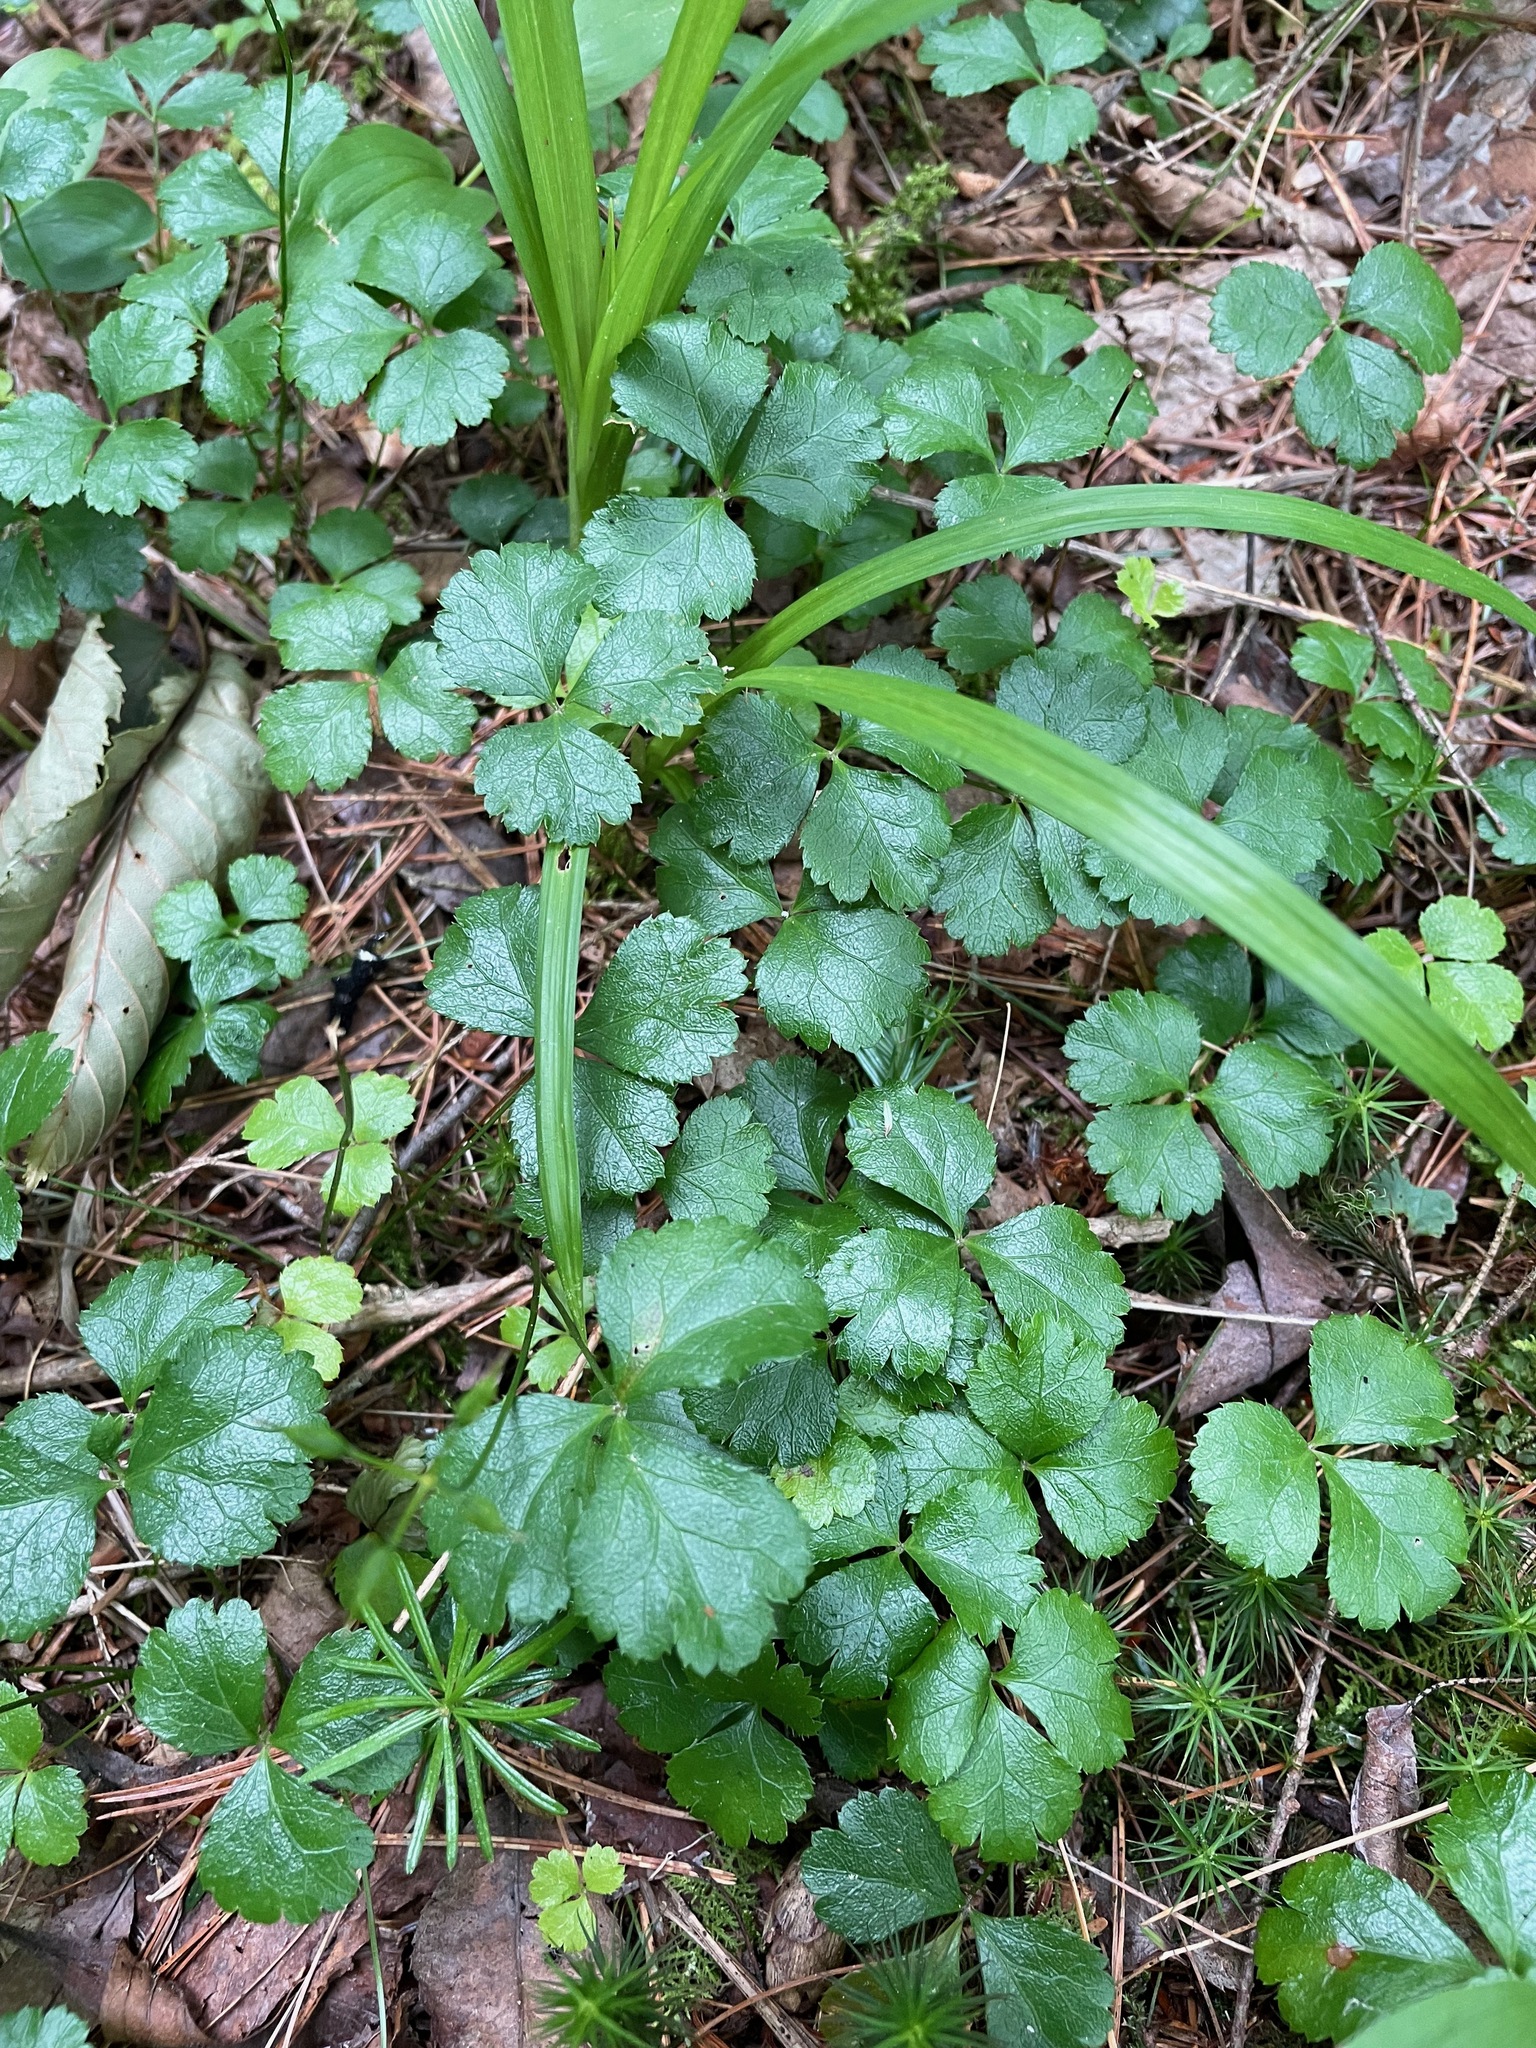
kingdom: Plantae
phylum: Tracheophyta
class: Magnoliopsida
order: Ranunculales
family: Ranunculaceae
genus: Coptis
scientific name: Coptis trifolia
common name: Canker-root
